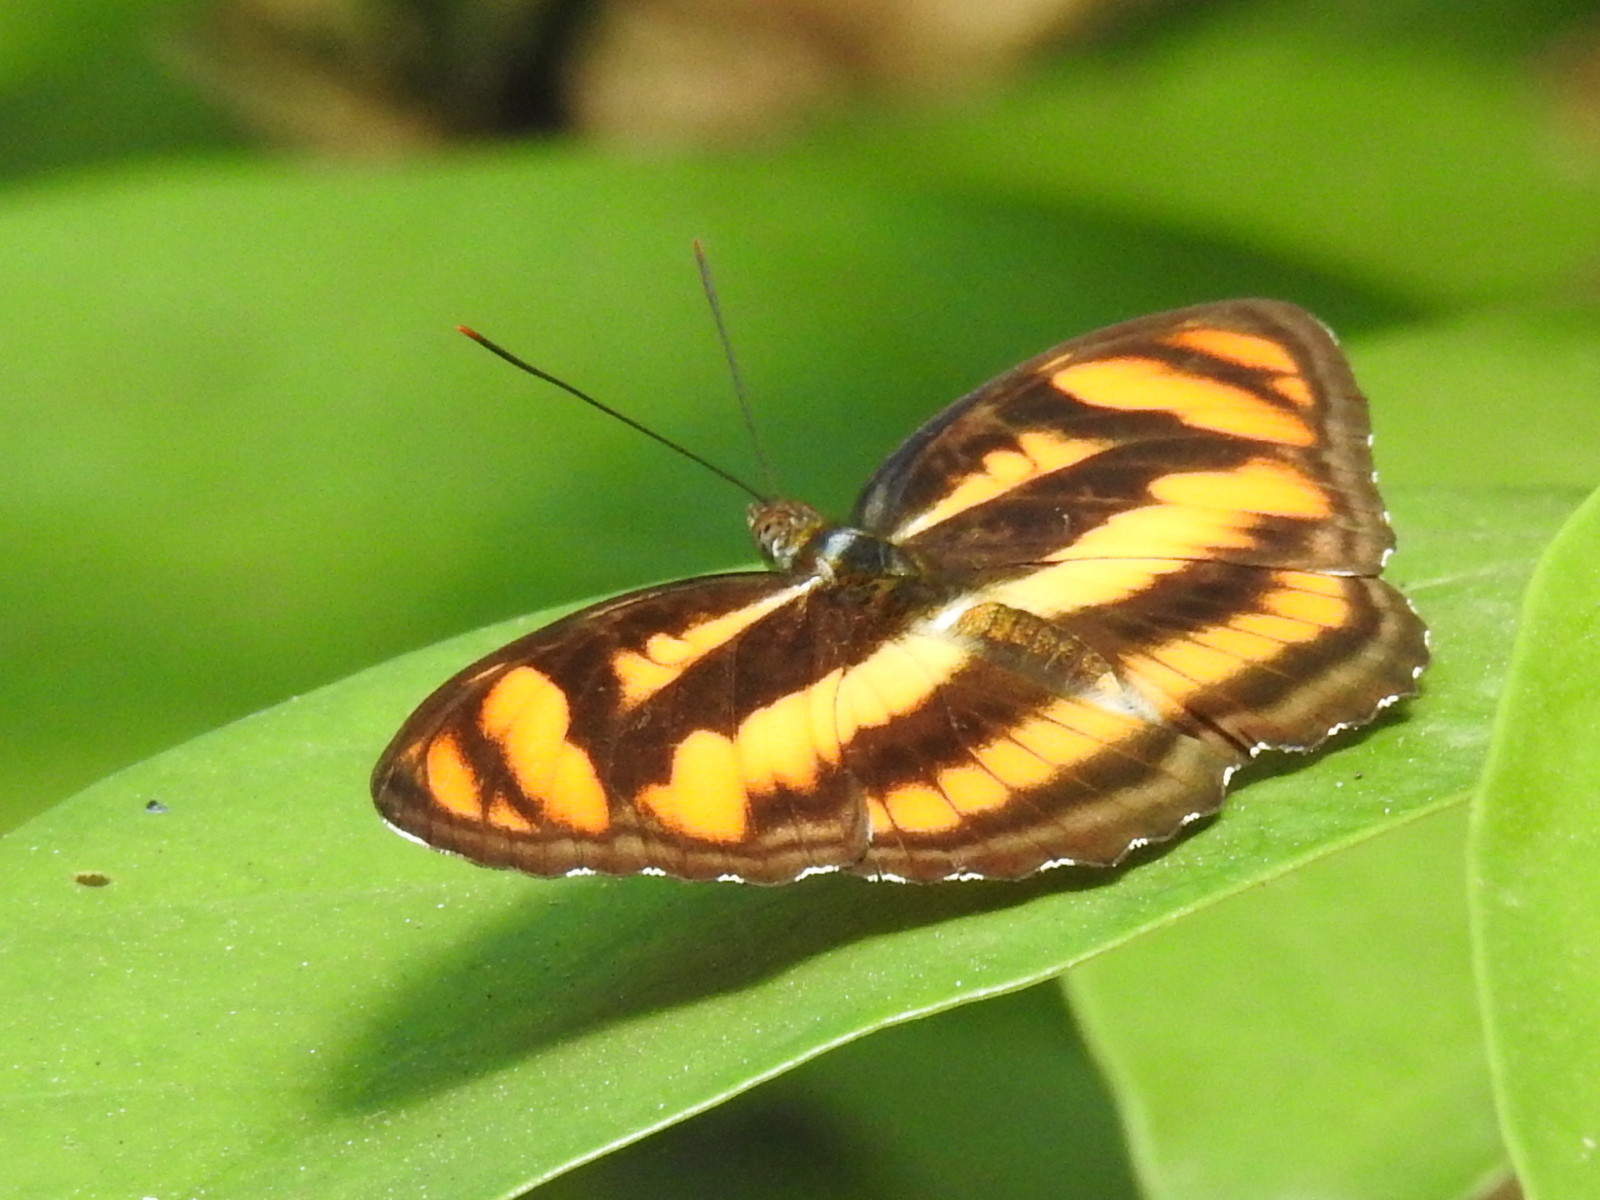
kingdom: Animalia
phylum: Arthropoda
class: Insecta
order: Lepidoptera
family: Nymphalidae
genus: Parathyma
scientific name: Parathyma nefte
